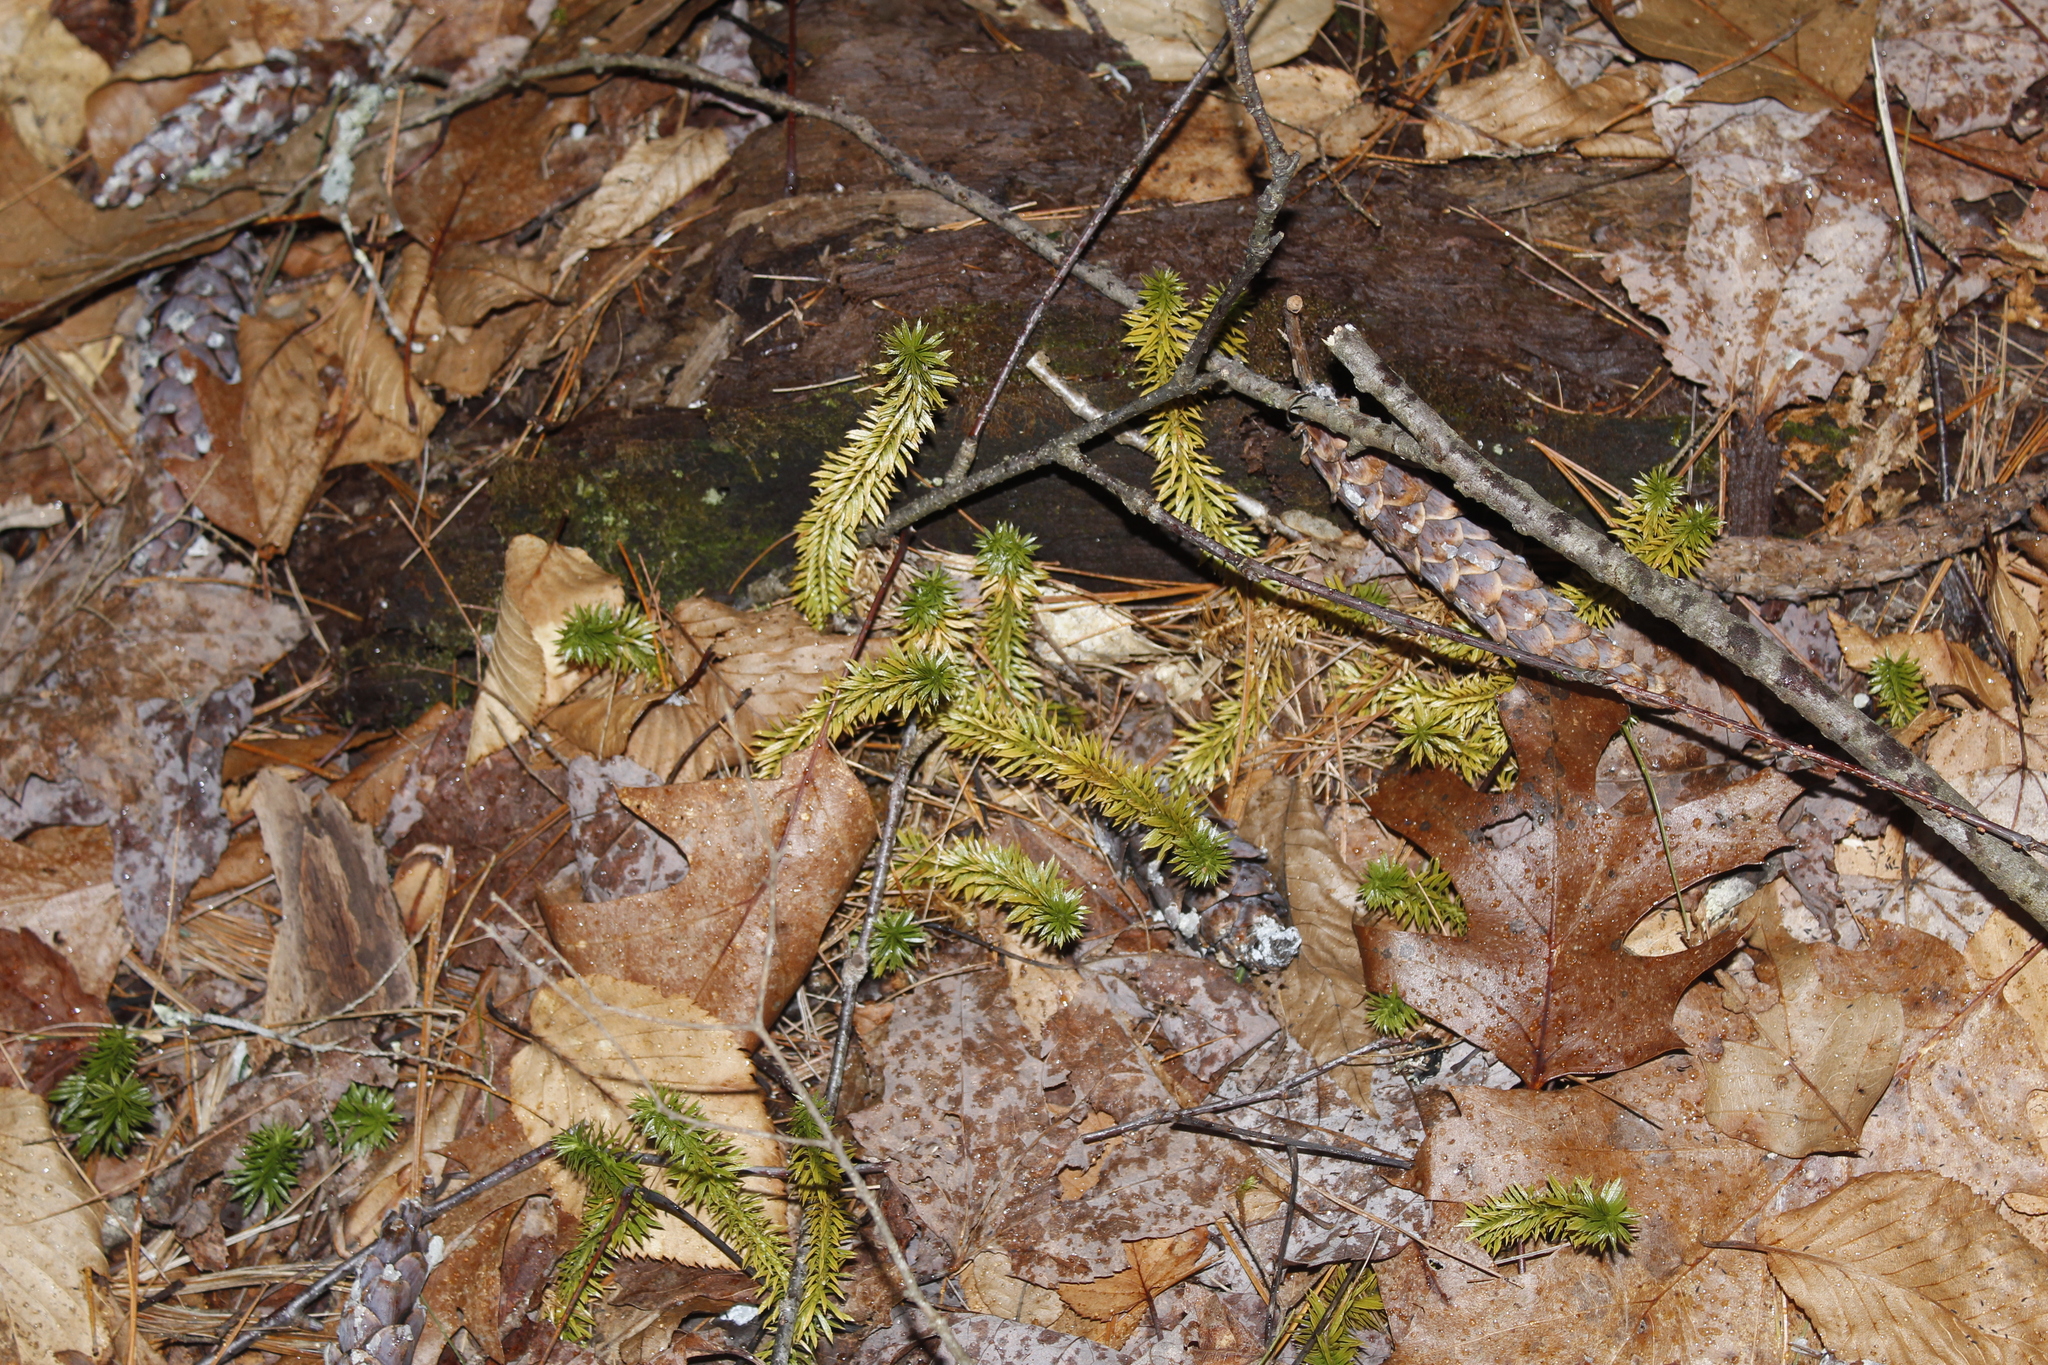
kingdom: Plantae
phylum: Tracheophyta
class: Lycopodiopsida
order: Lycopodiales
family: Lycopodiaceae
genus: Huperzia
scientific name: Huperzia lucidula
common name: Shining clubmoss
